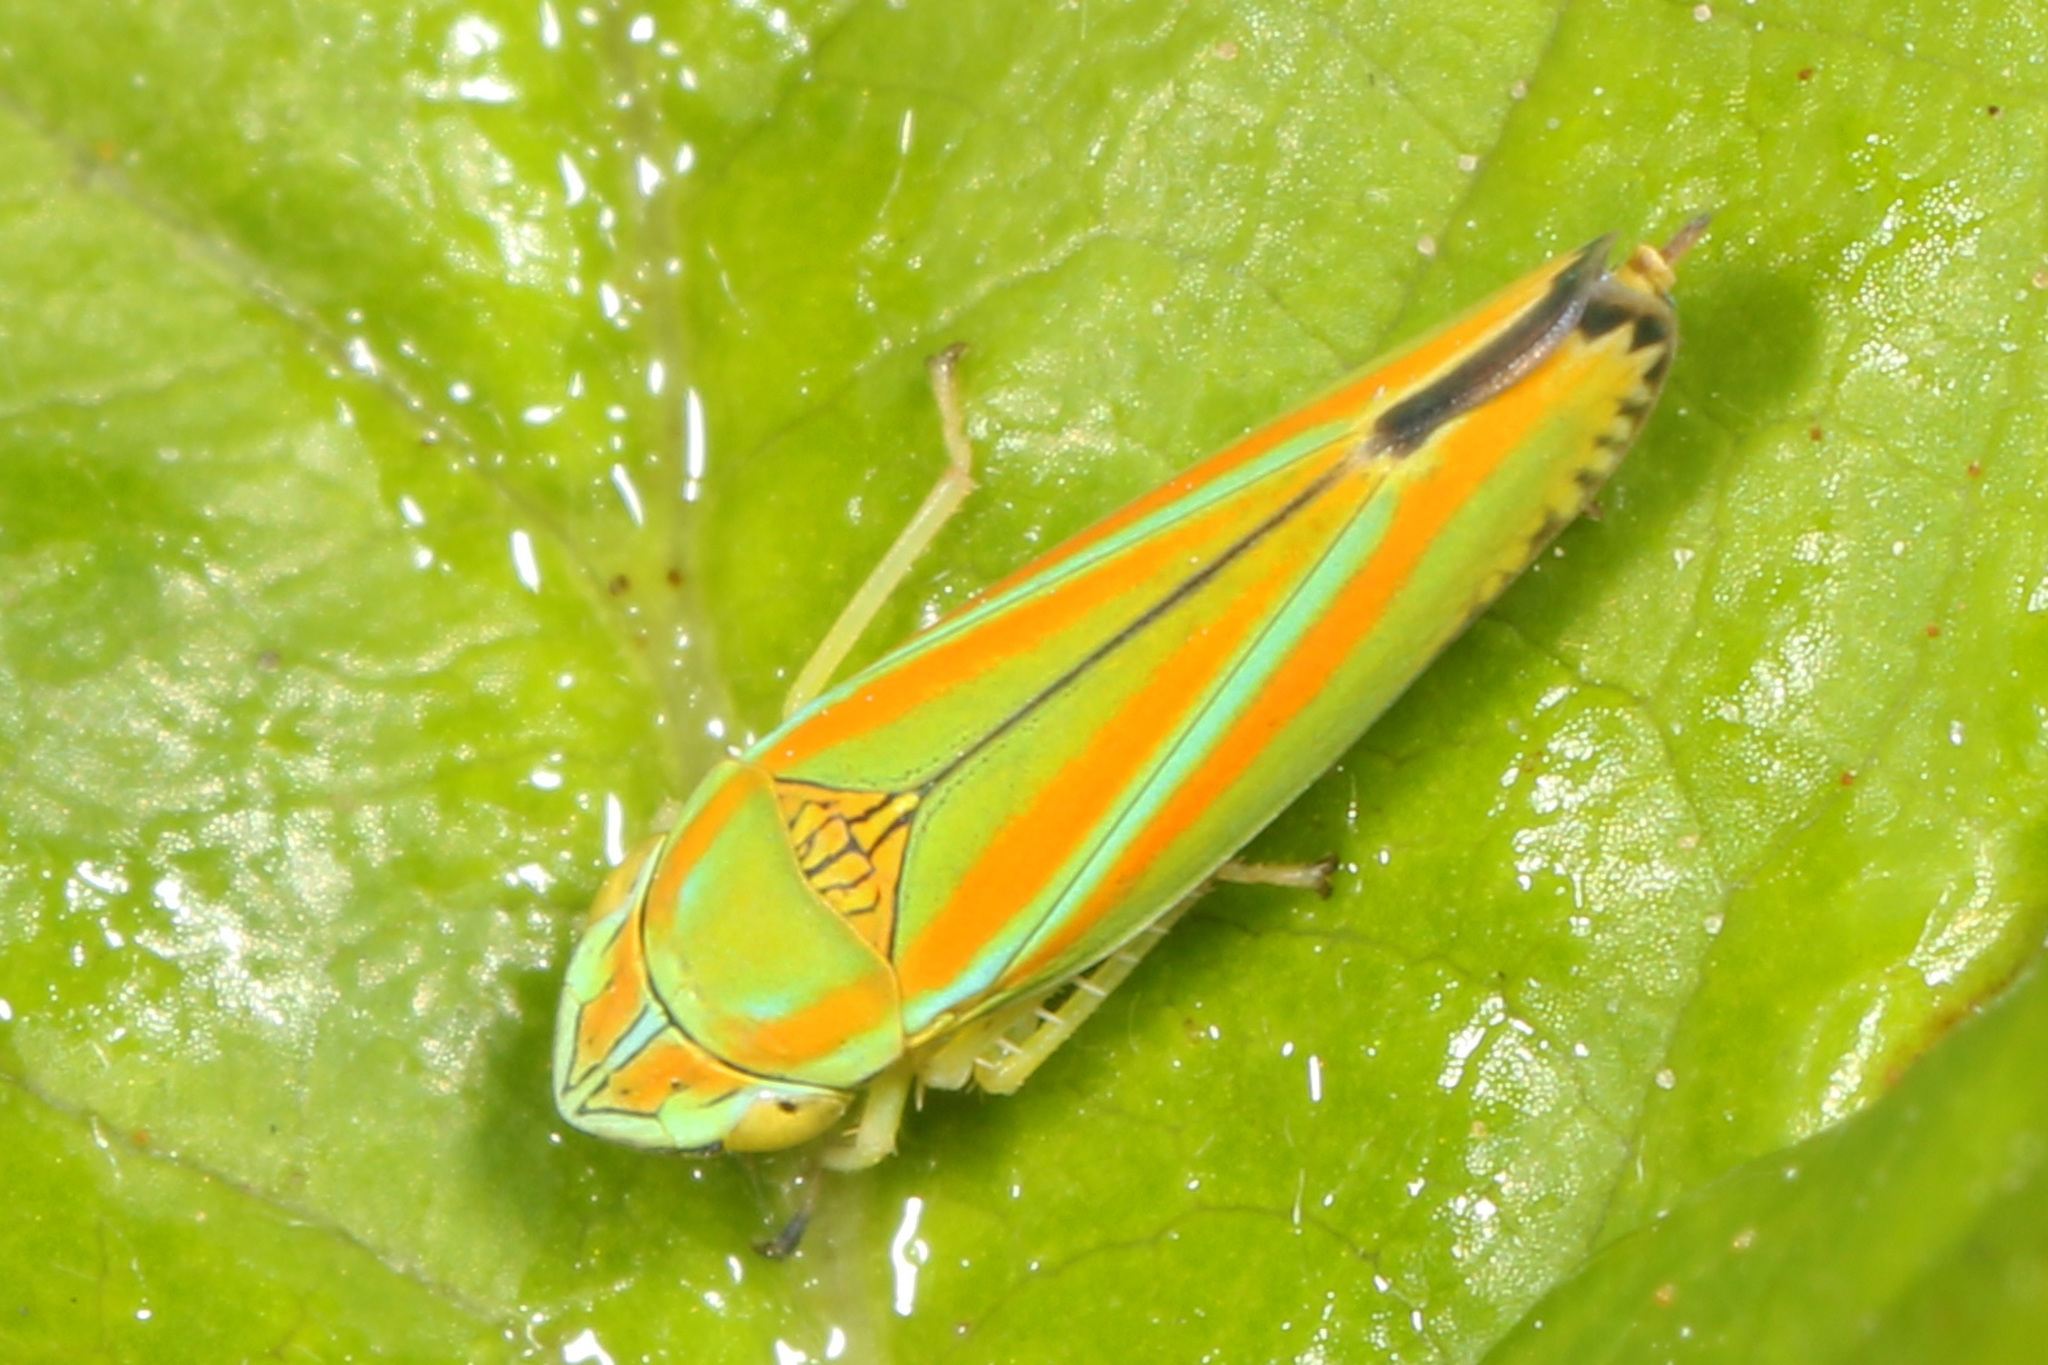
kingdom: Animalia
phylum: Arthropoda
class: Insecta
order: Hemiptera
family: Cicadellidae
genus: Graphocephala
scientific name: Graphocephala versuta
